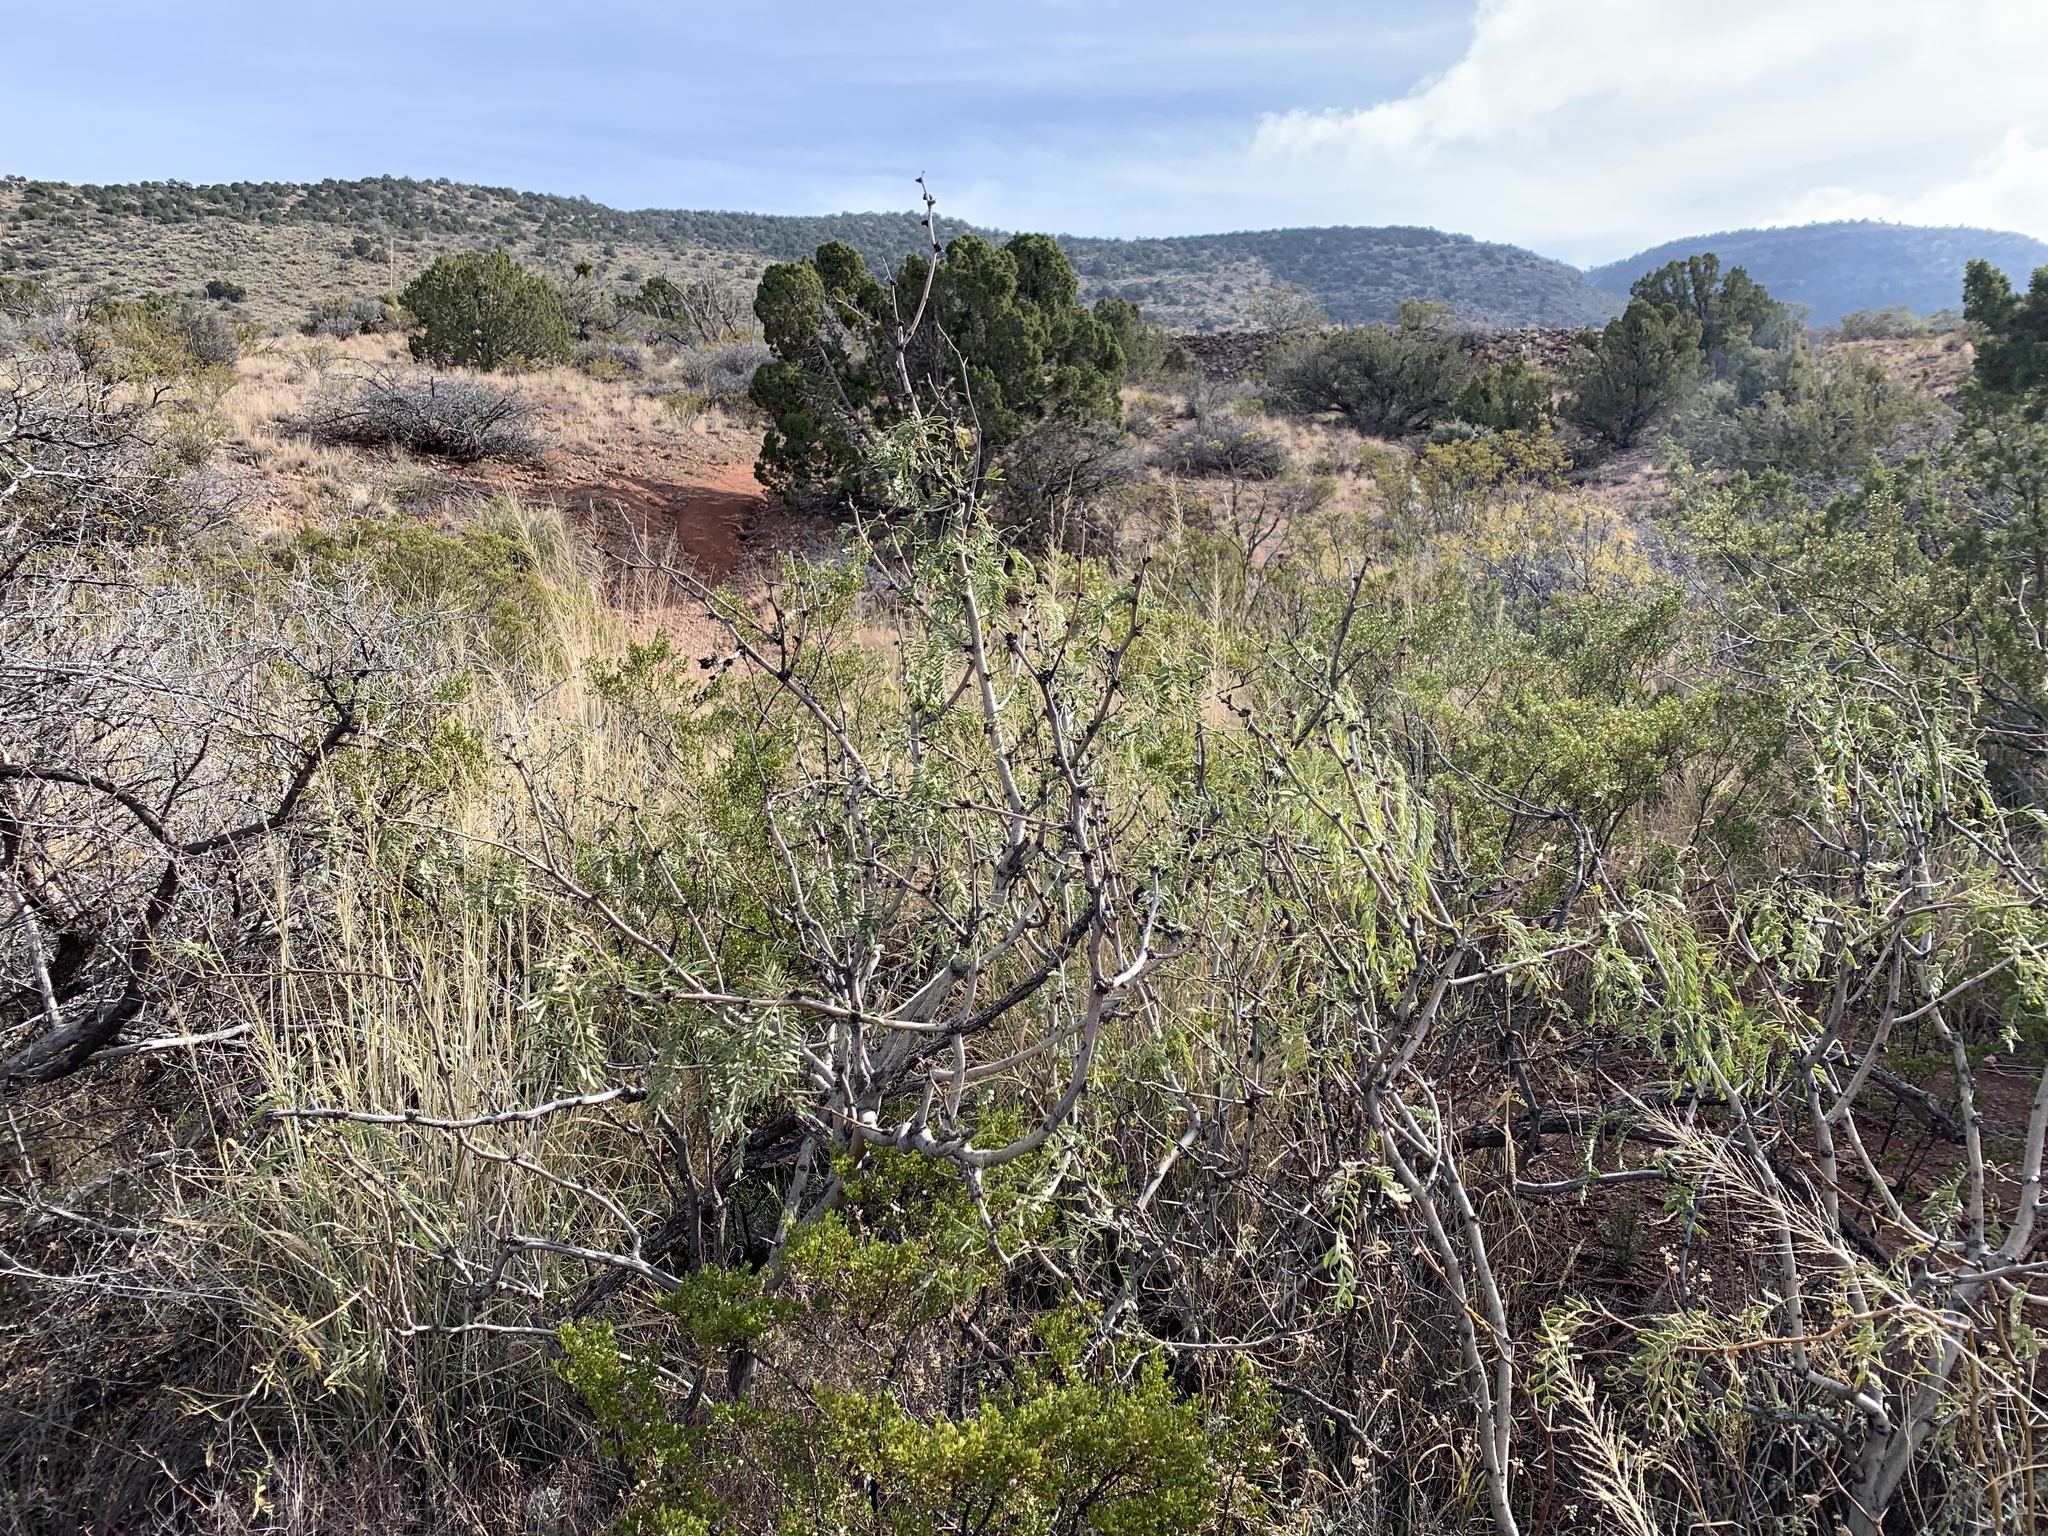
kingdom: Plantae
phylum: Tracheophyta
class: Magnoliopsida
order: Fabales
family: Fabaceae
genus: Prosopis
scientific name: Prosopis glandulosa
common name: Honey mesquite
